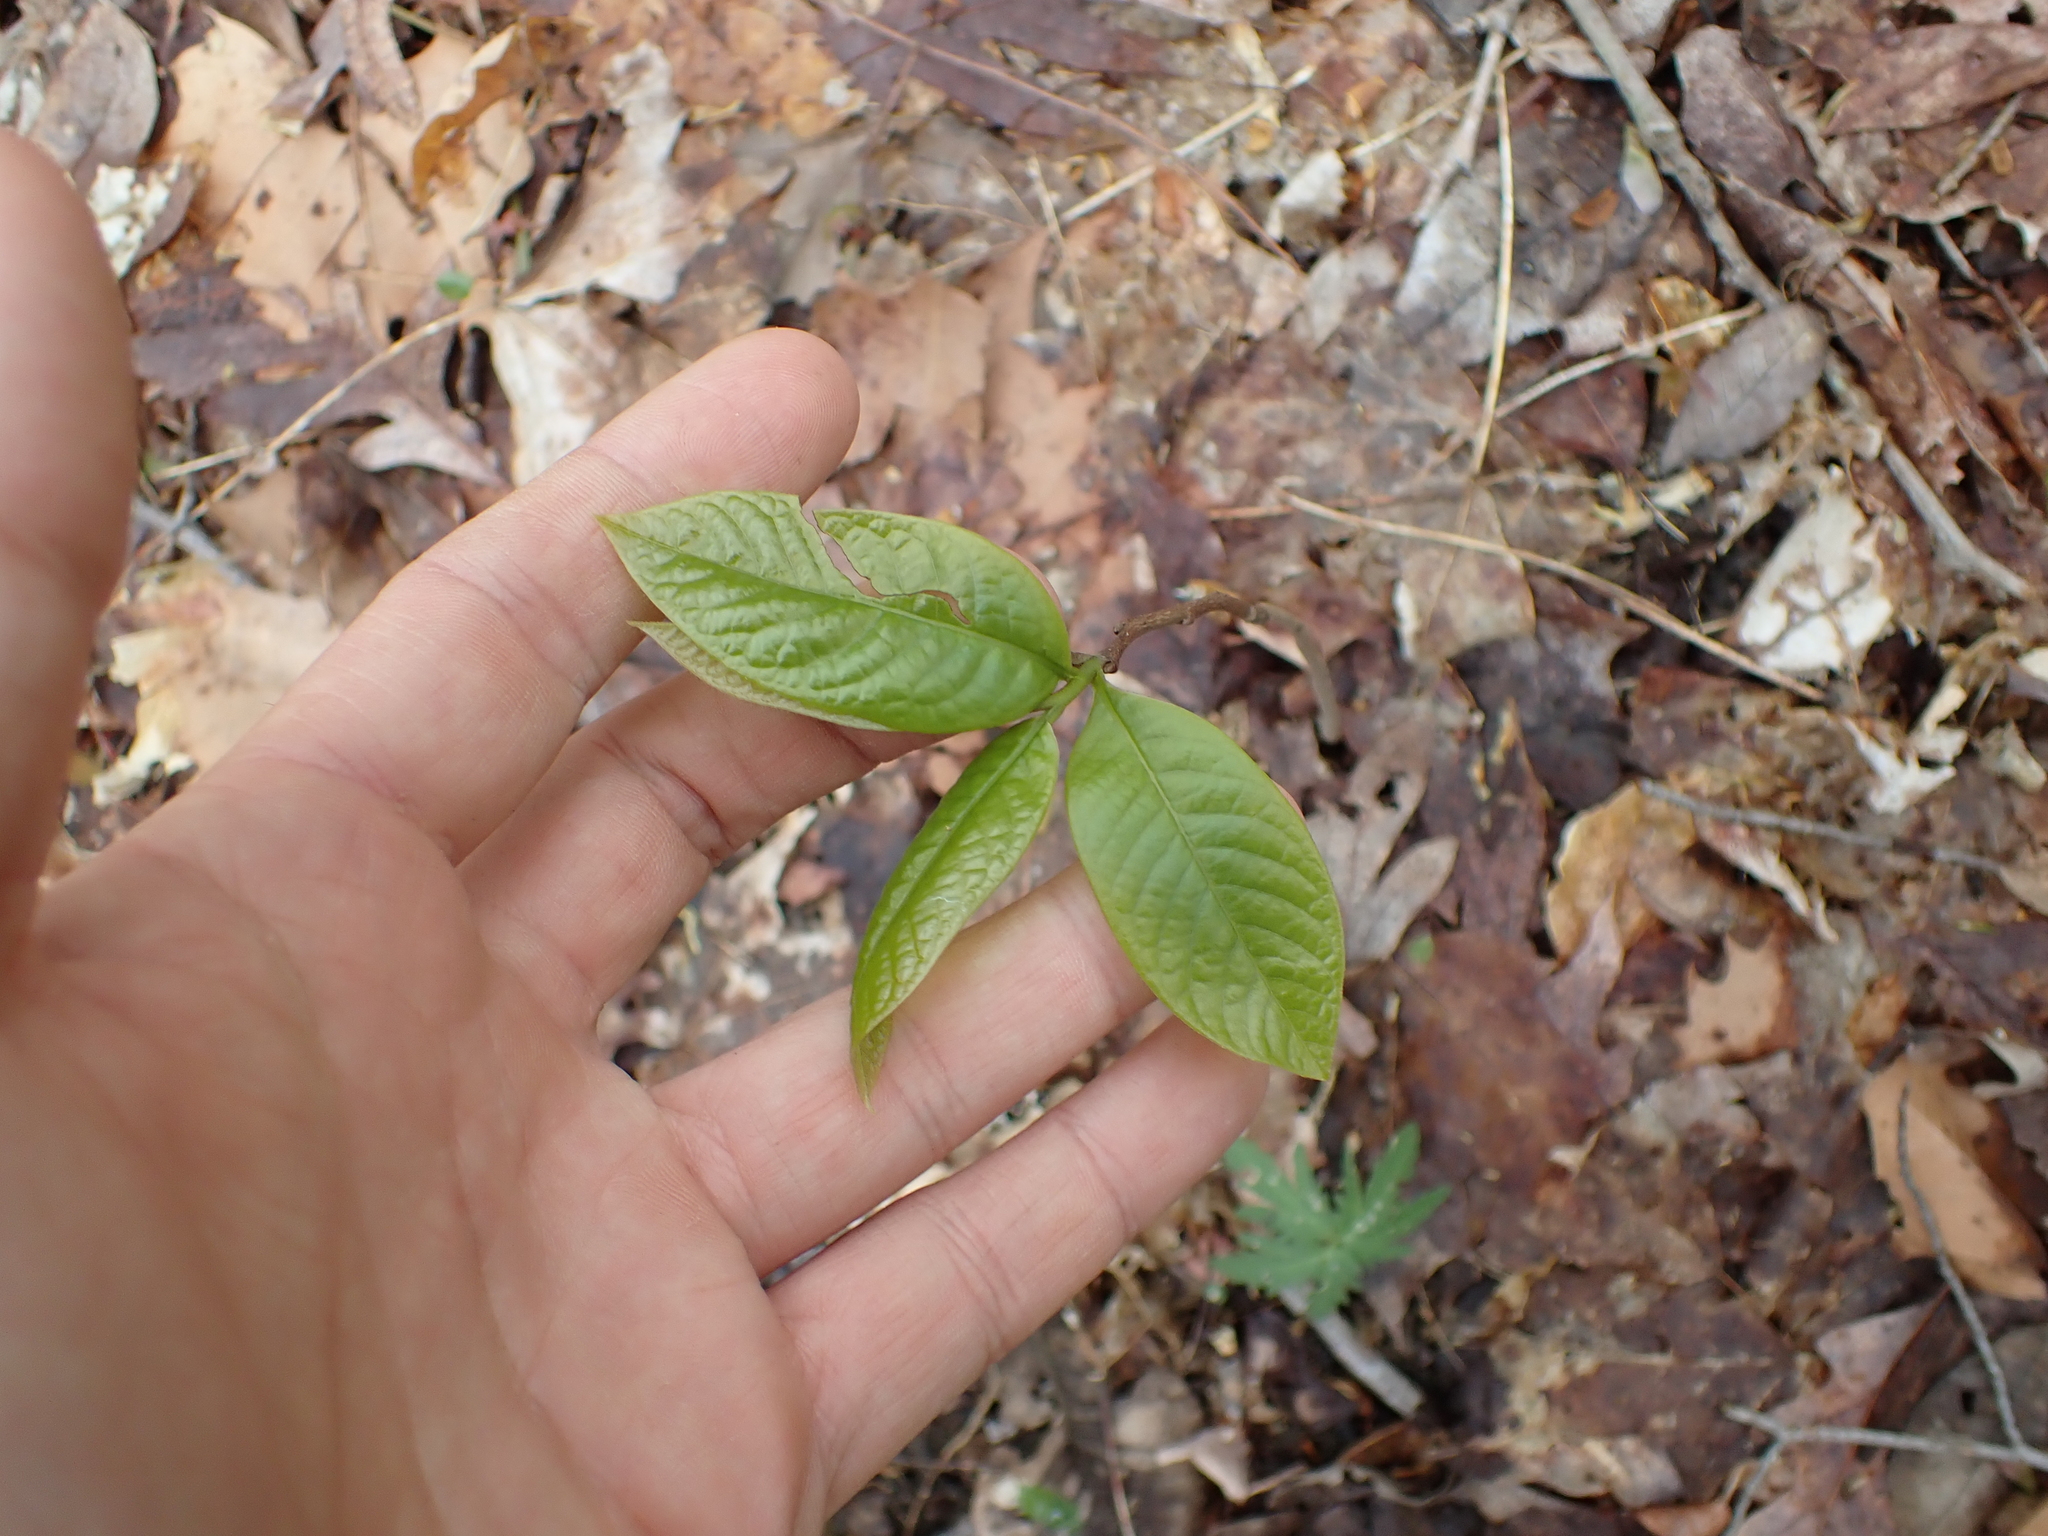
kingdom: Plantae
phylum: Tracheophyta
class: Magnoliopsida
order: Magnoliales
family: Annonaceae
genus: Asimina
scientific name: Asimina triloba
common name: Dog-banana
